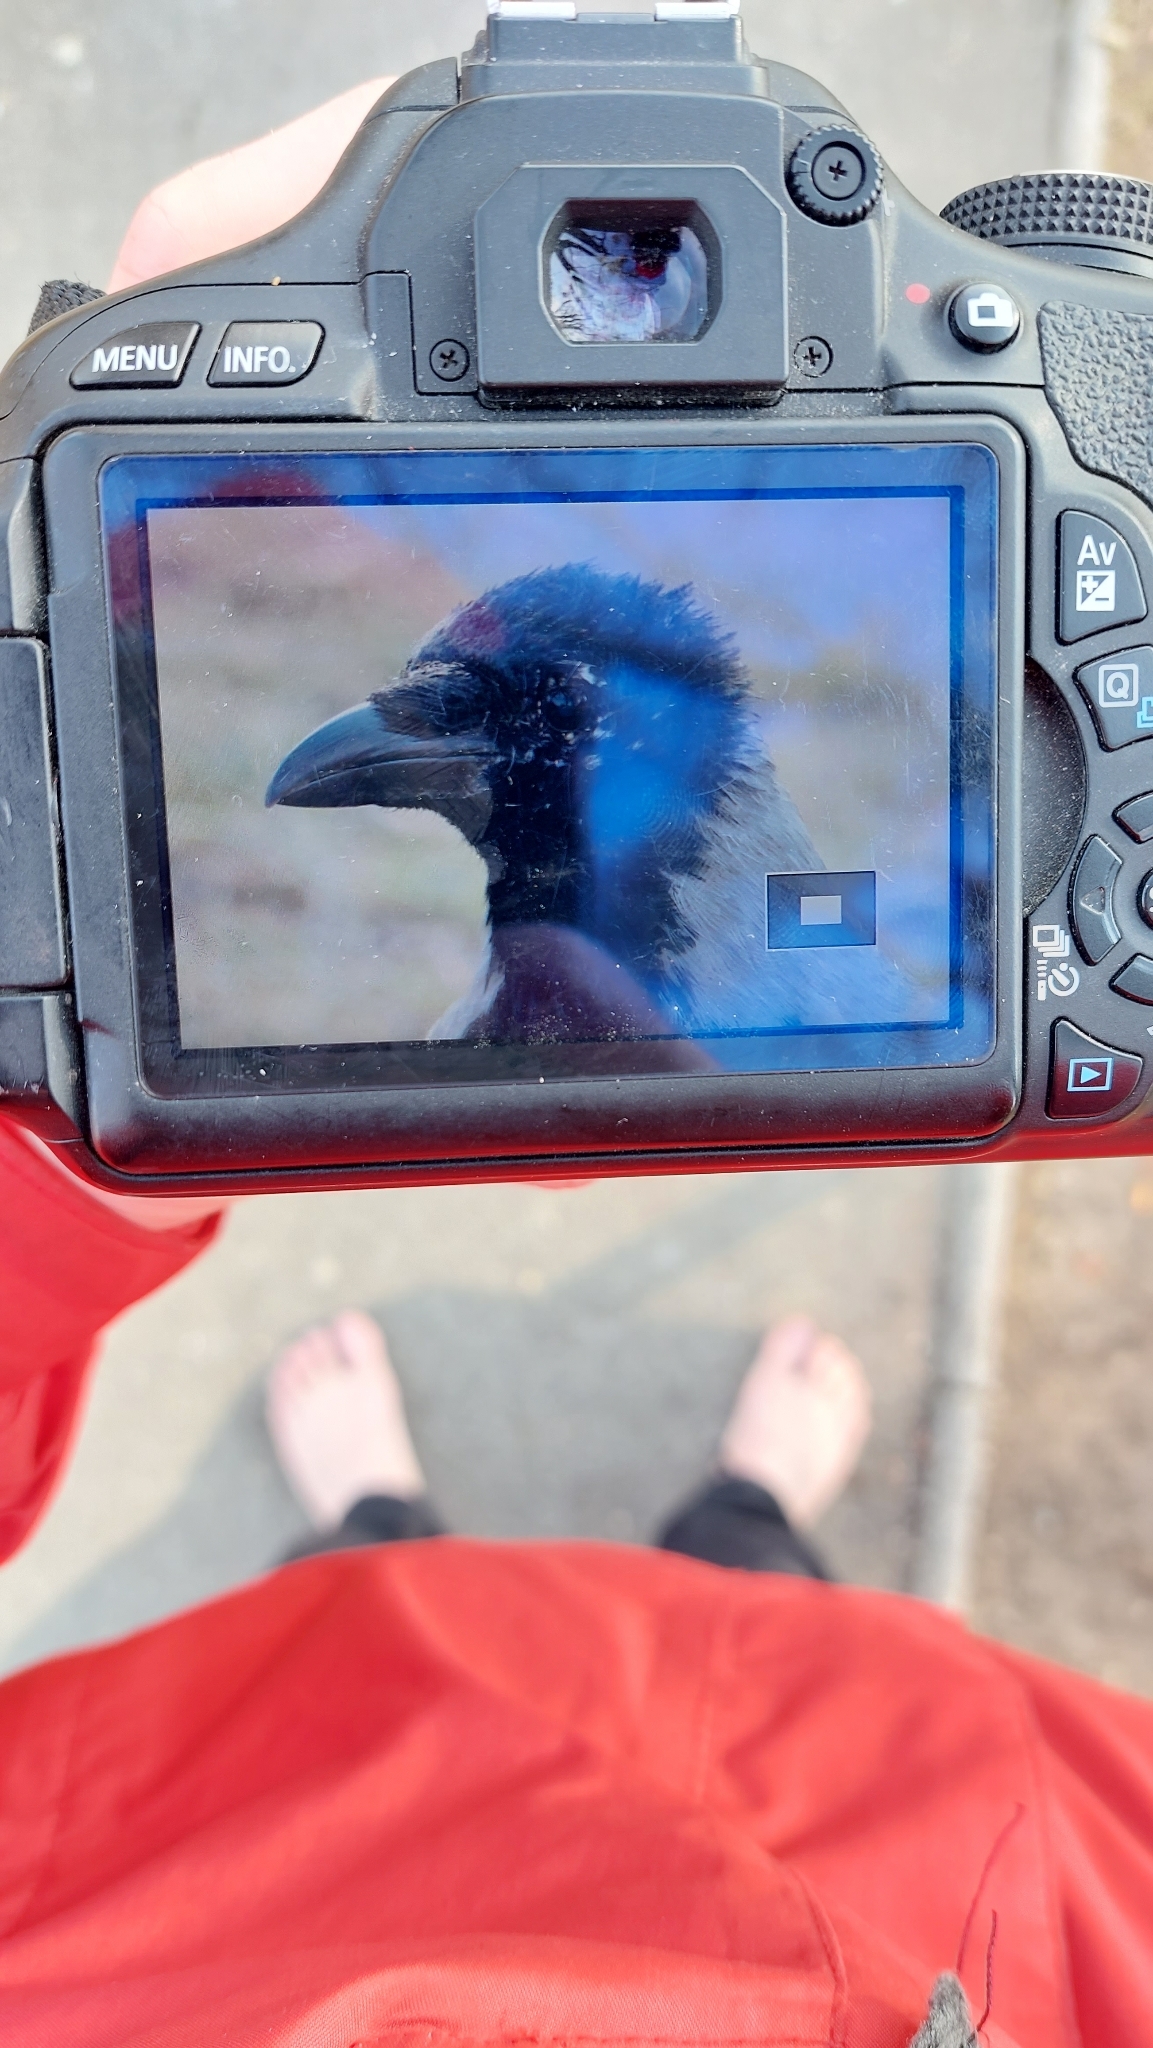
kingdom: Animalia
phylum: Chordata
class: Aves
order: Passeriformes
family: Corvidae
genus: Corvus
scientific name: Corvus cornix
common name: Hooded crow
